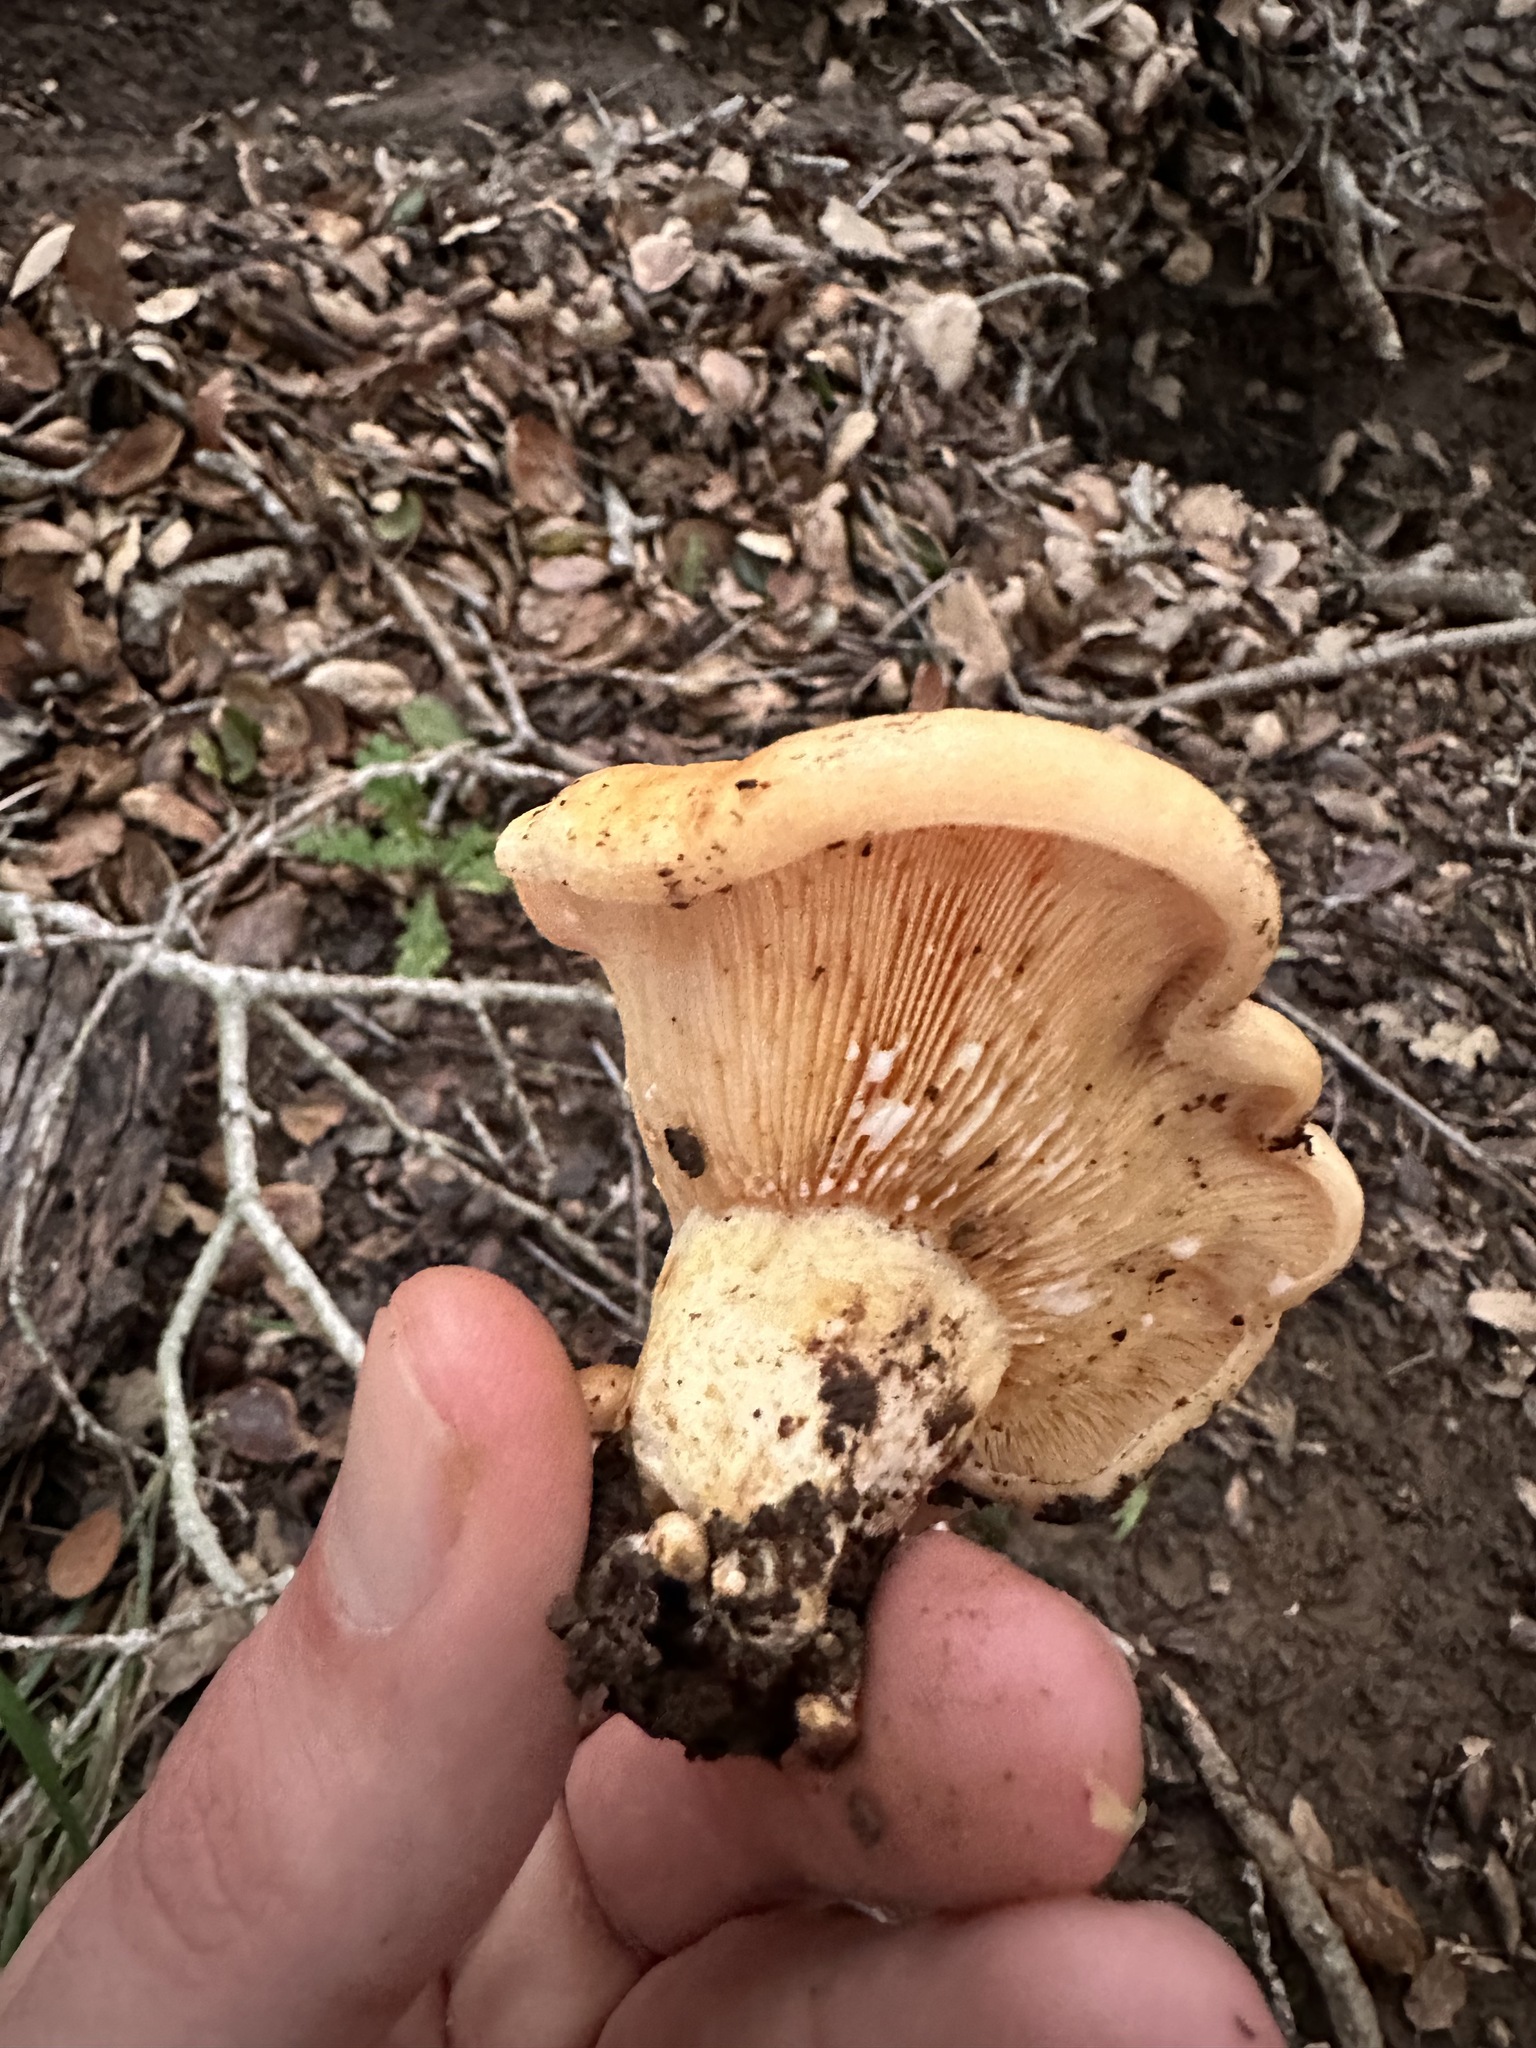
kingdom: Fungi
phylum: Basidiomycota
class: Agaricomycetes
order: Russulales
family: Russulaceae
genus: Lactarius
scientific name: Lactarius alnicola
